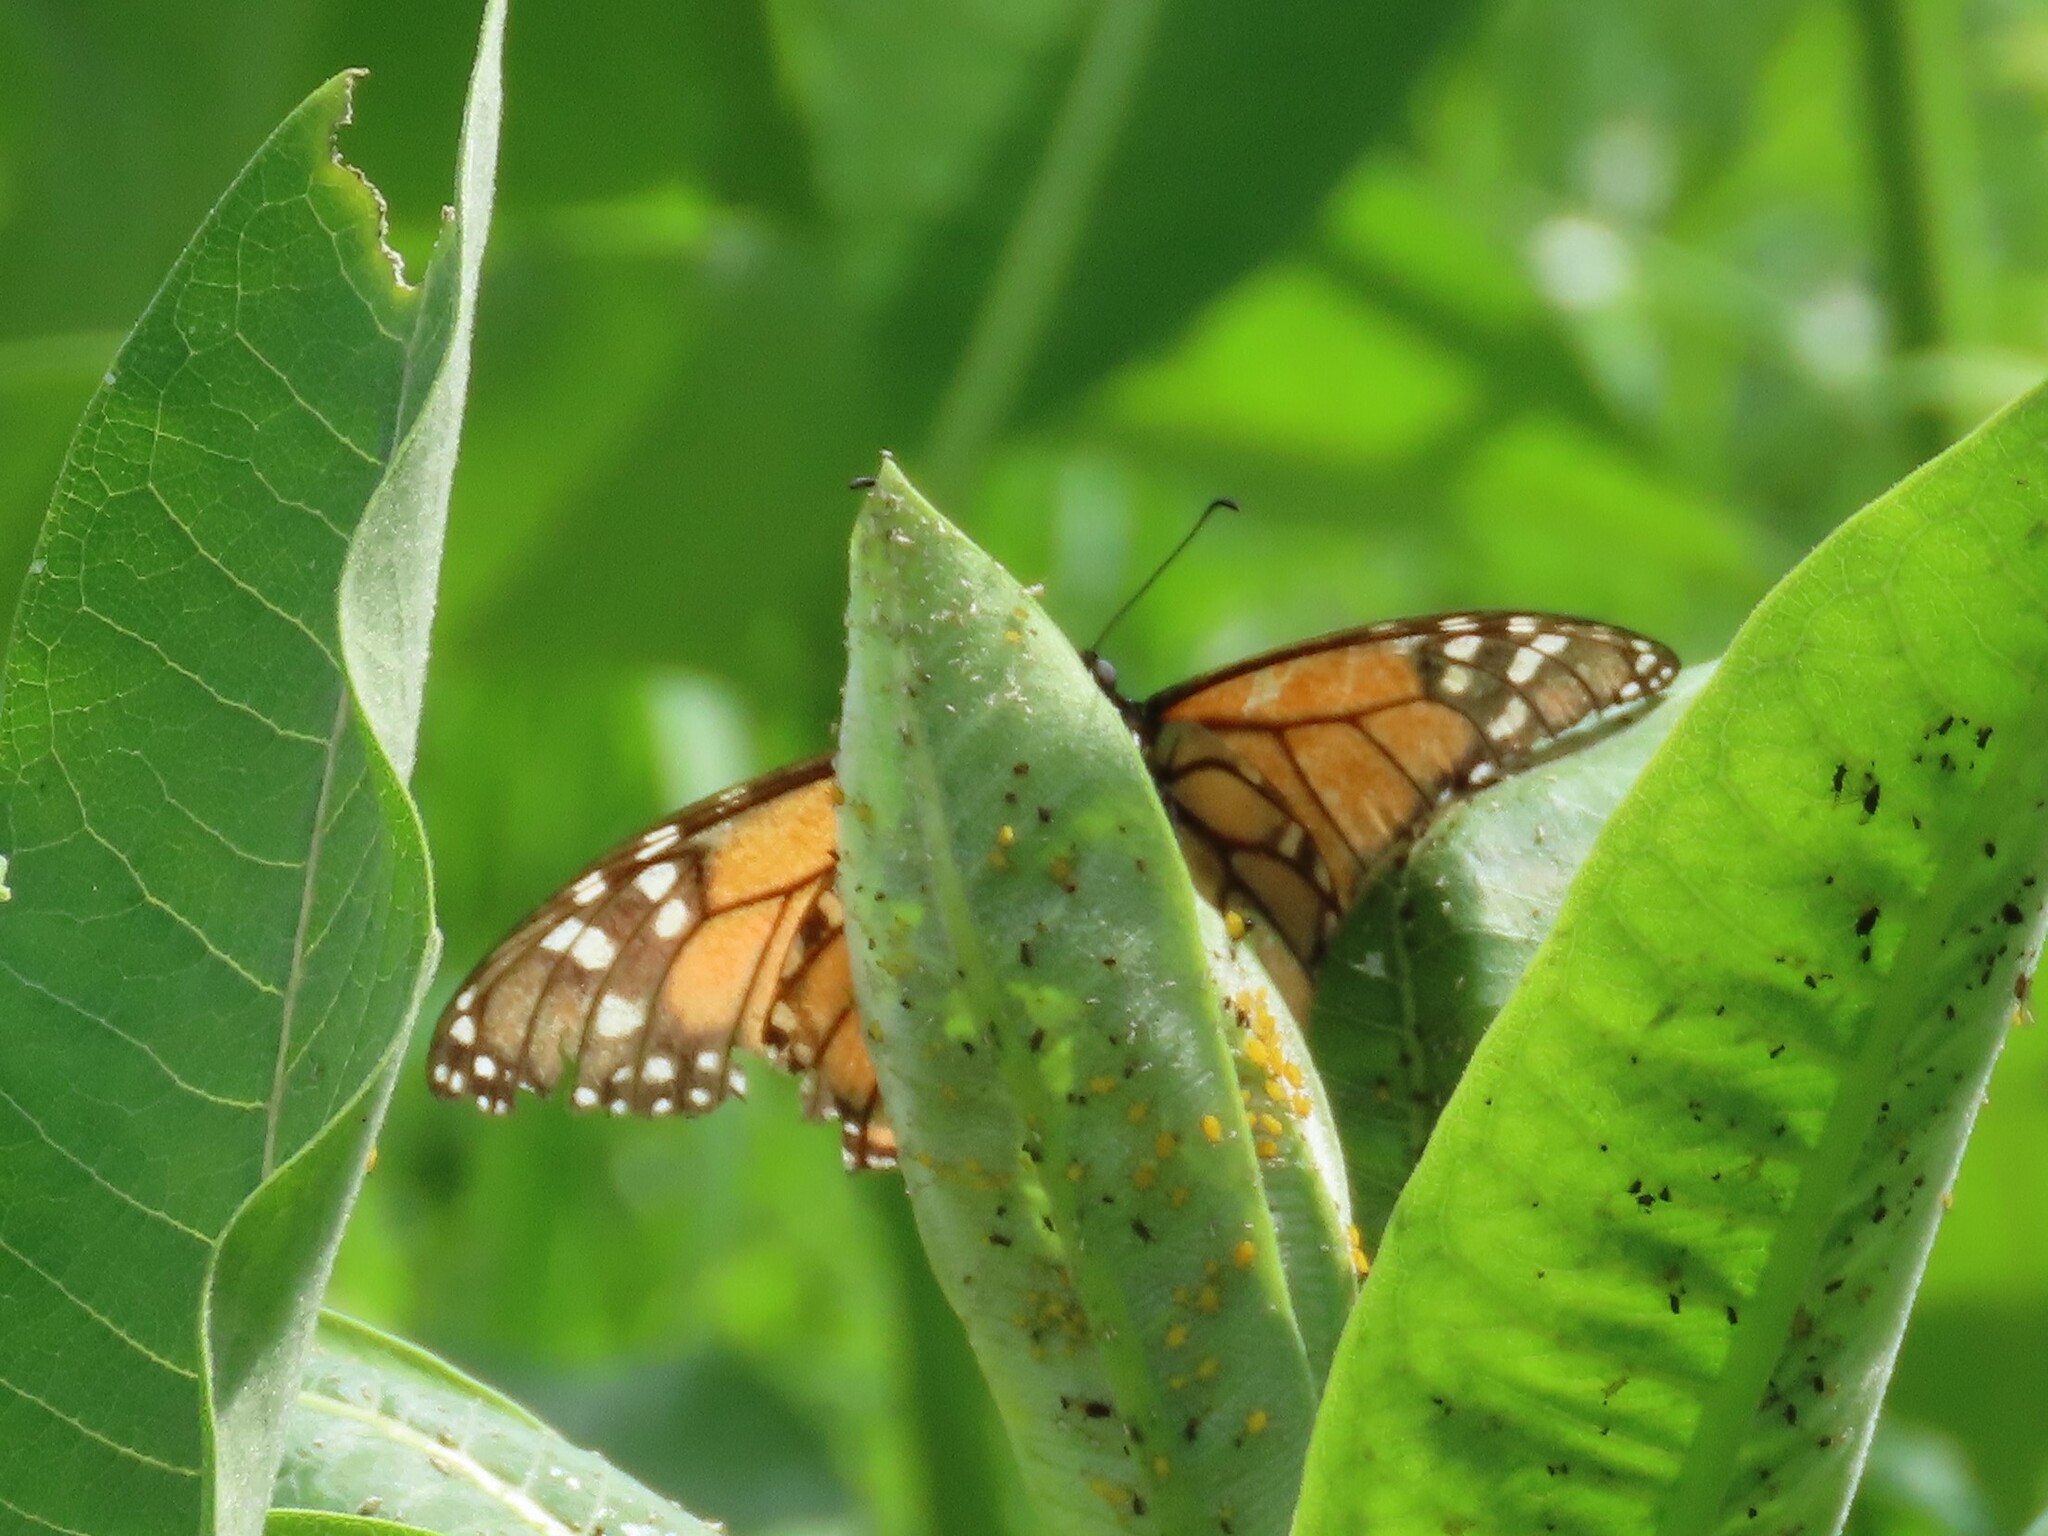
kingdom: Animalia
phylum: Arthropoda
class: Insecta
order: Lepidoptera
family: Nymphalidae
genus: Danaus
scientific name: Danaus plexippus
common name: Monarch
